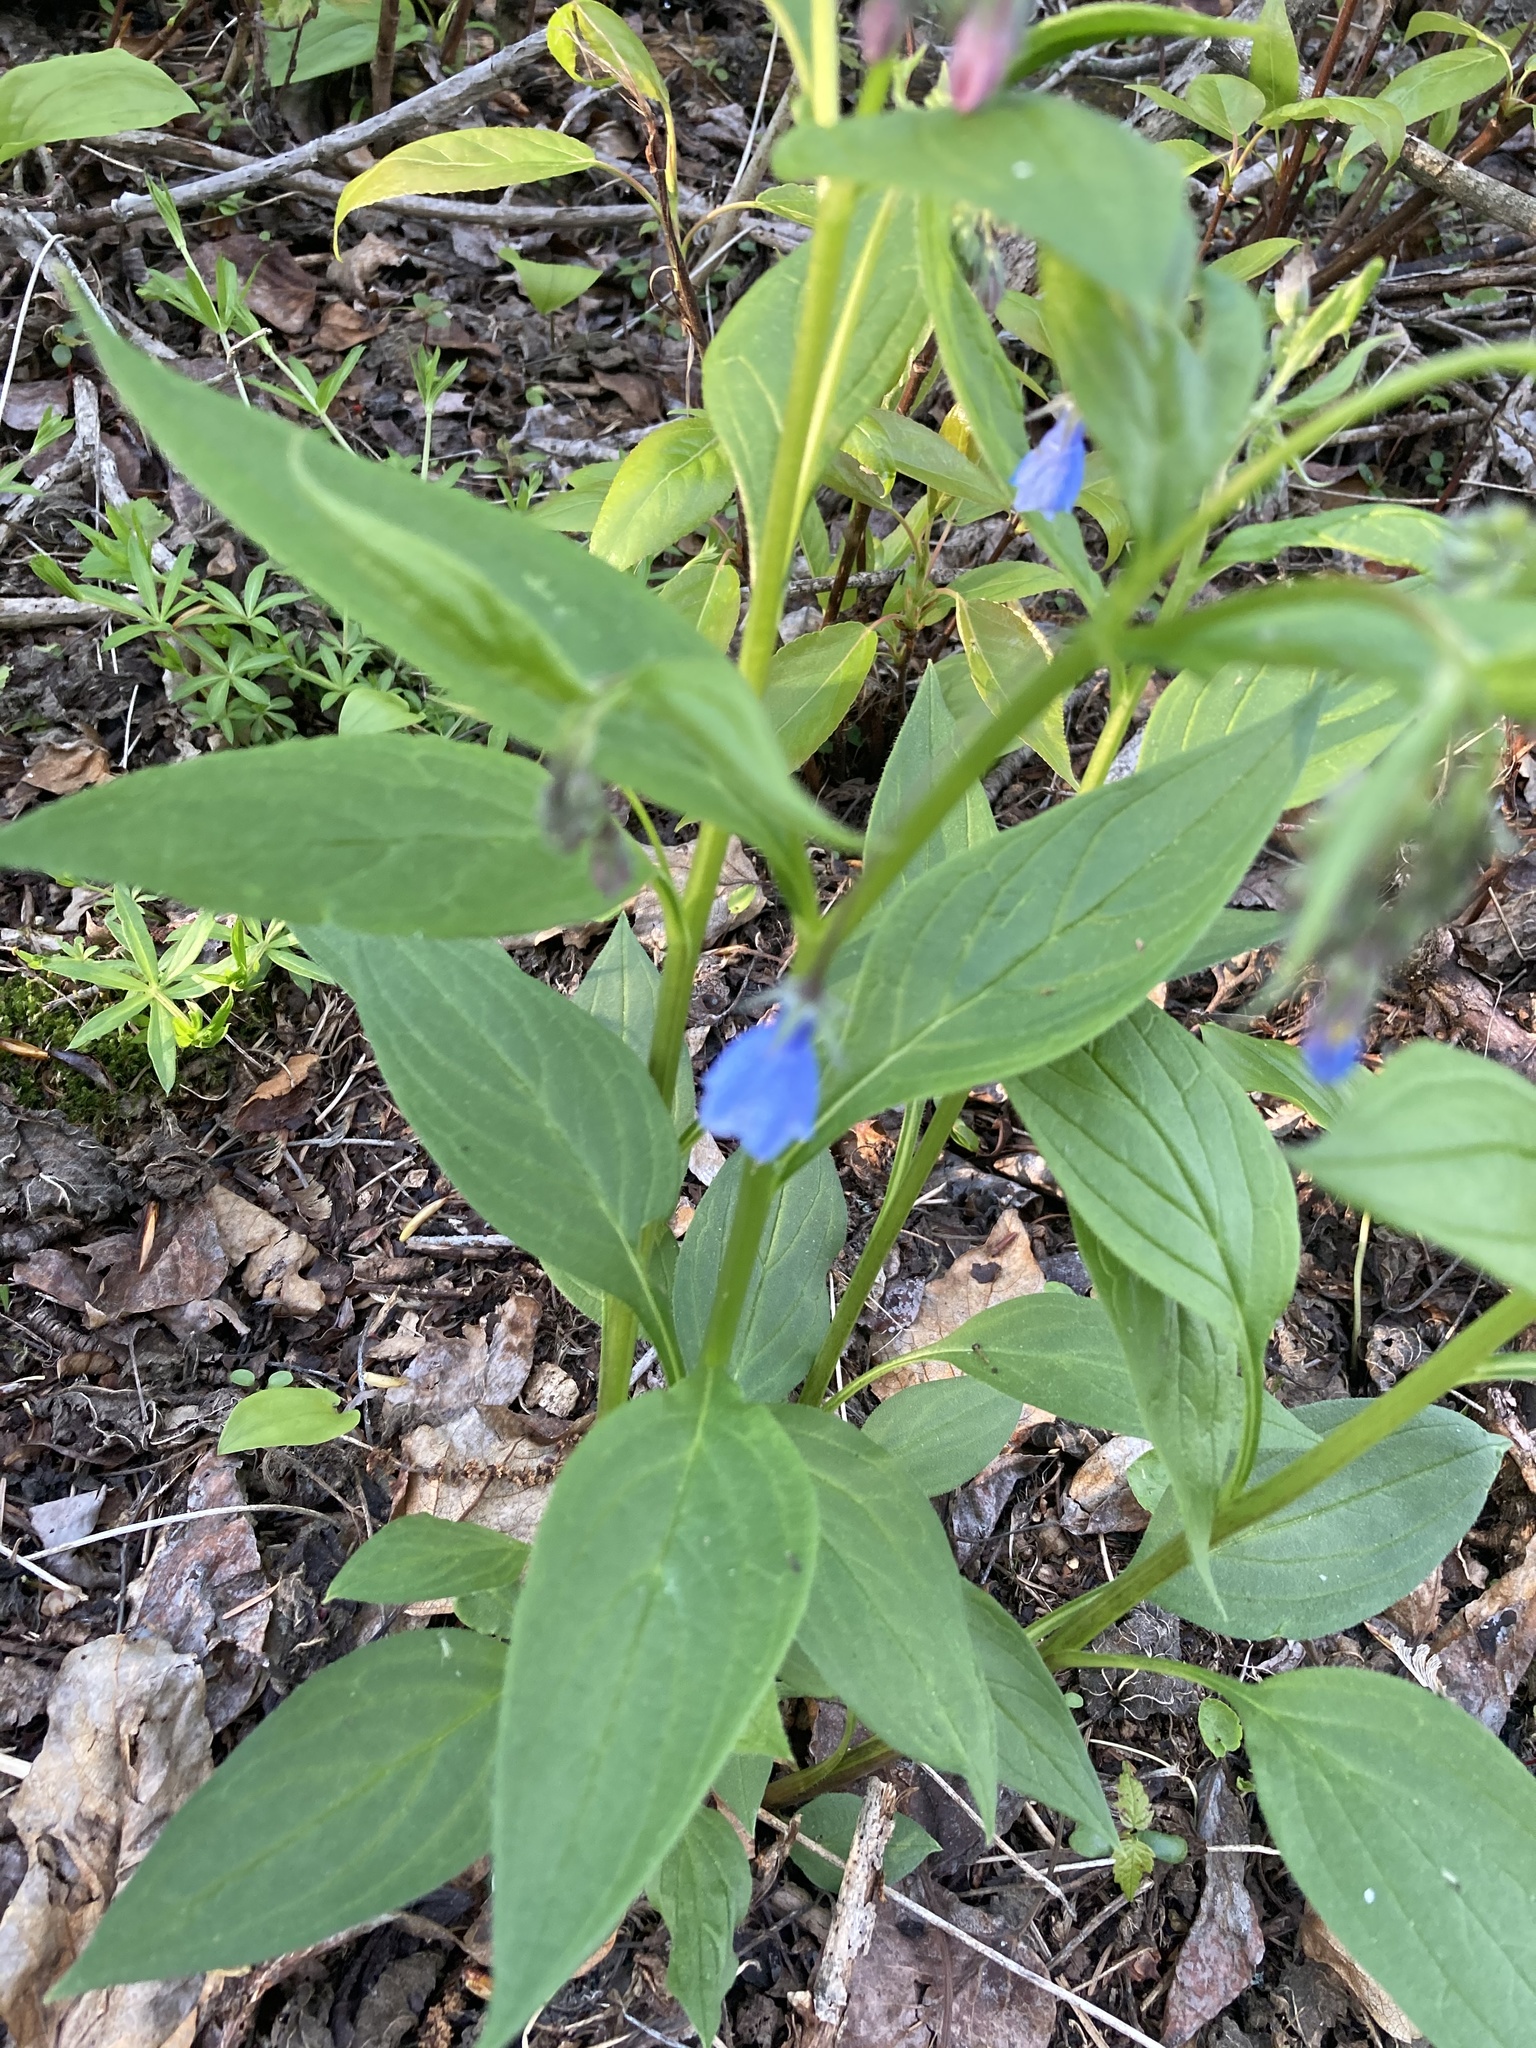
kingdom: Plantae
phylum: Tracheophyta
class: Magnoliopsida
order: Boraginales
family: Boraginaceae
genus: Mertensia
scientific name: Mertensia paniculata
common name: Panicled bluebells
